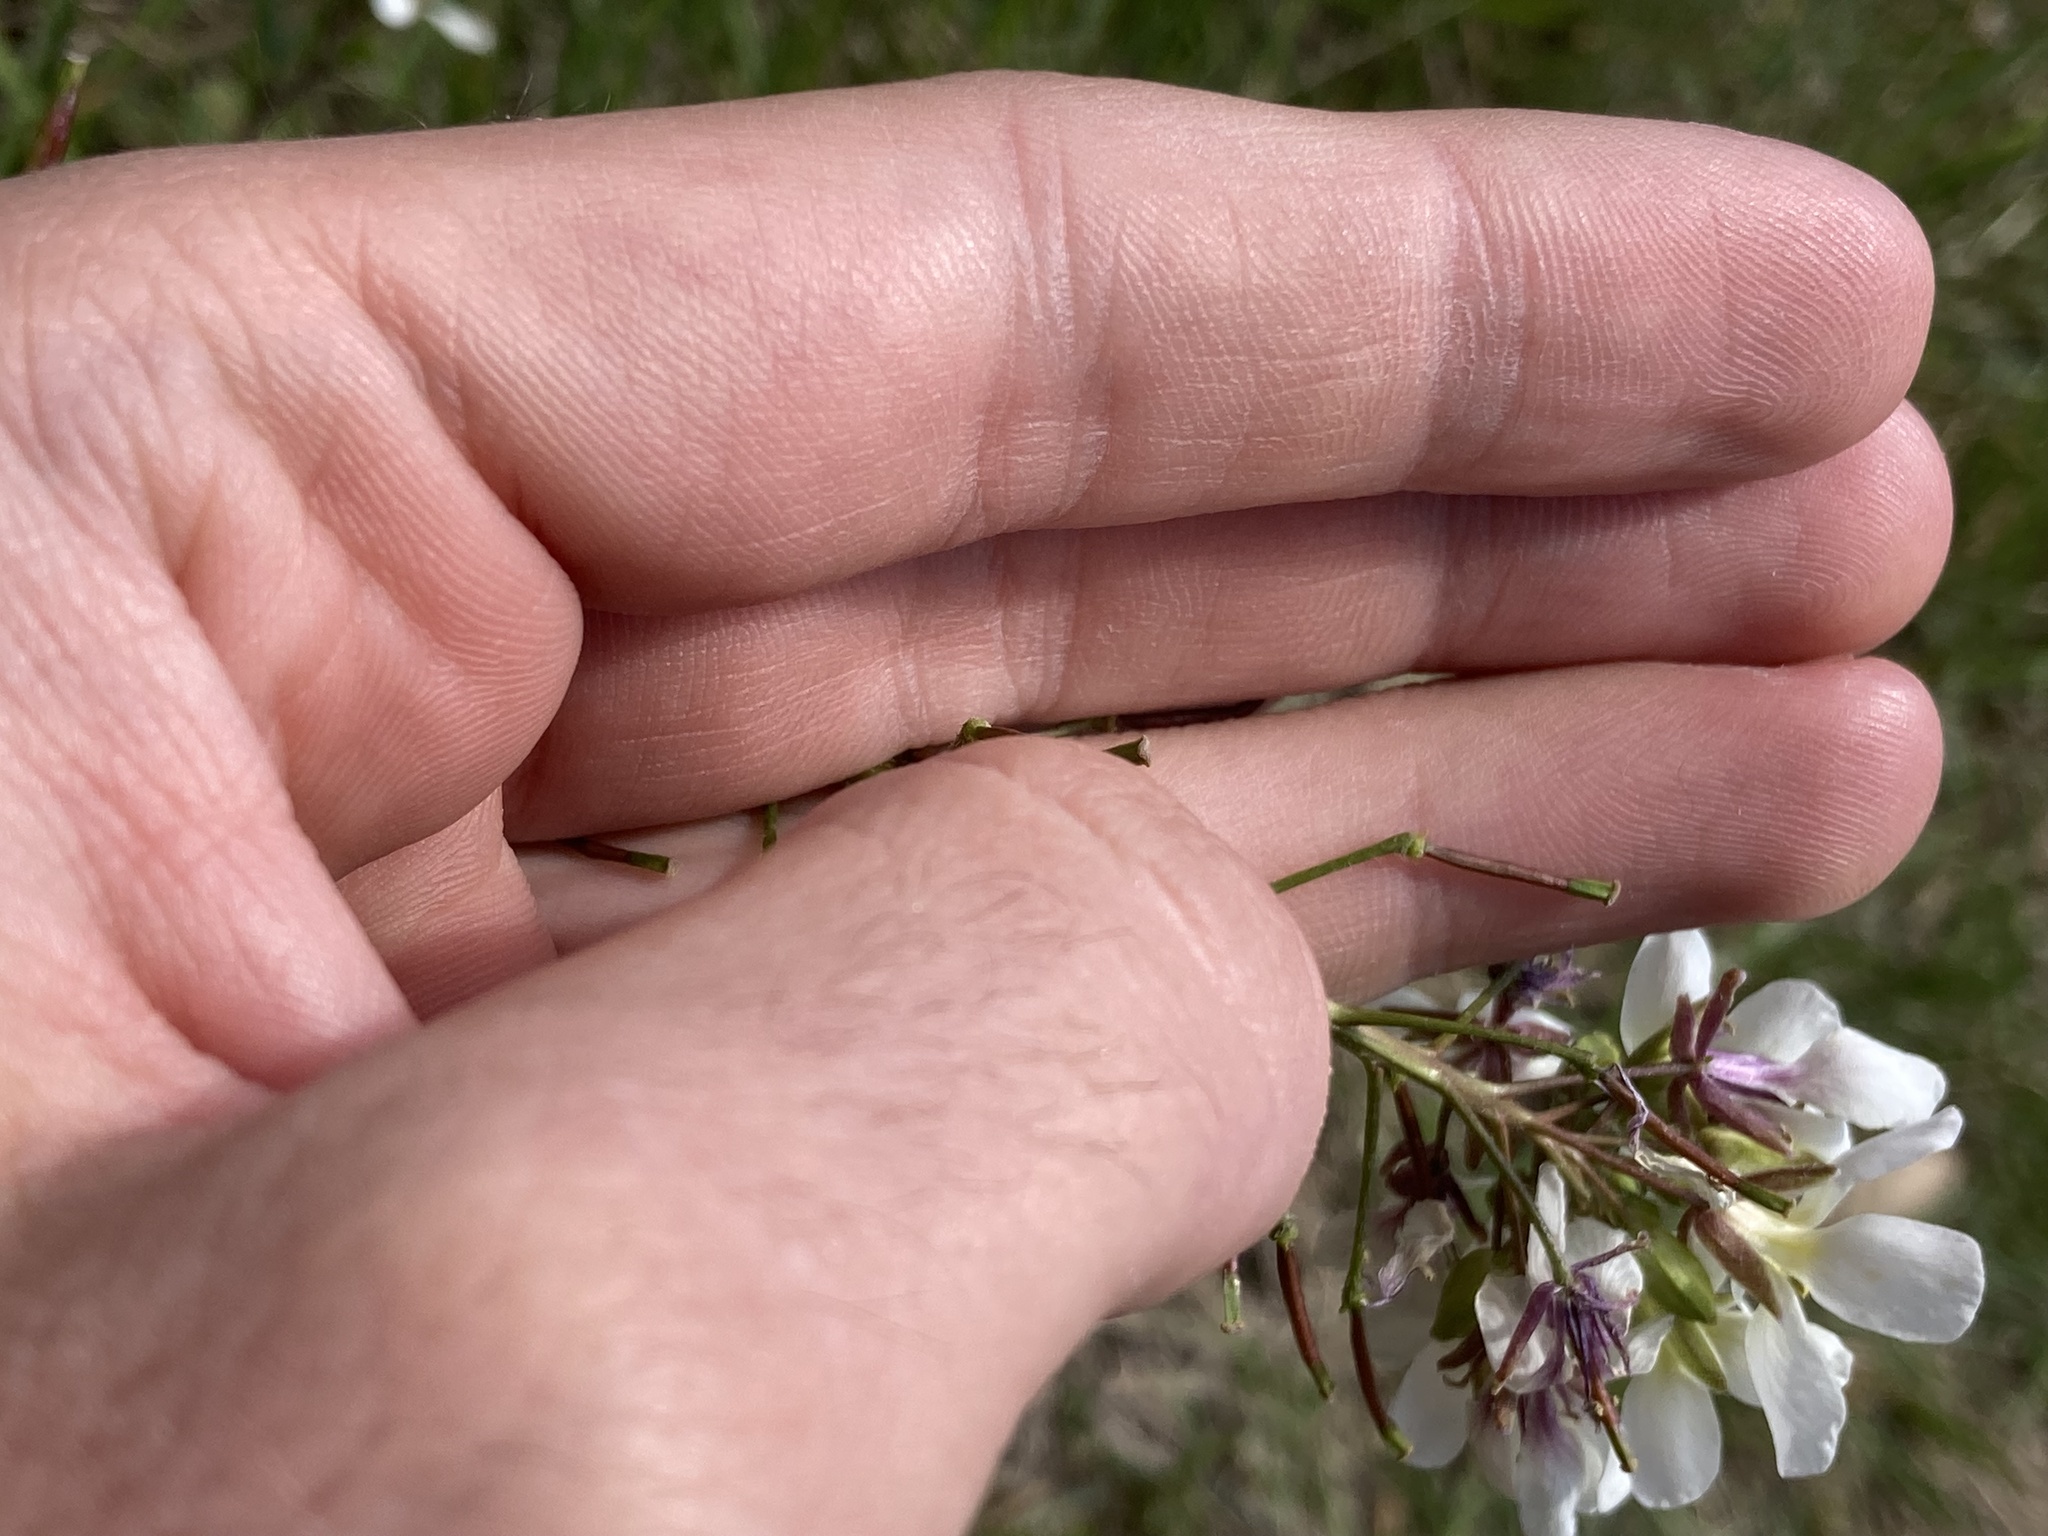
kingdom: Plantae
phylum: Tracheophyta
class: Magnoliopsida
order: Brassicales
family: Brassicaceae
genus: Diplotaxis
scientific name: Diplotaxis erucoides
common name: White rocket
